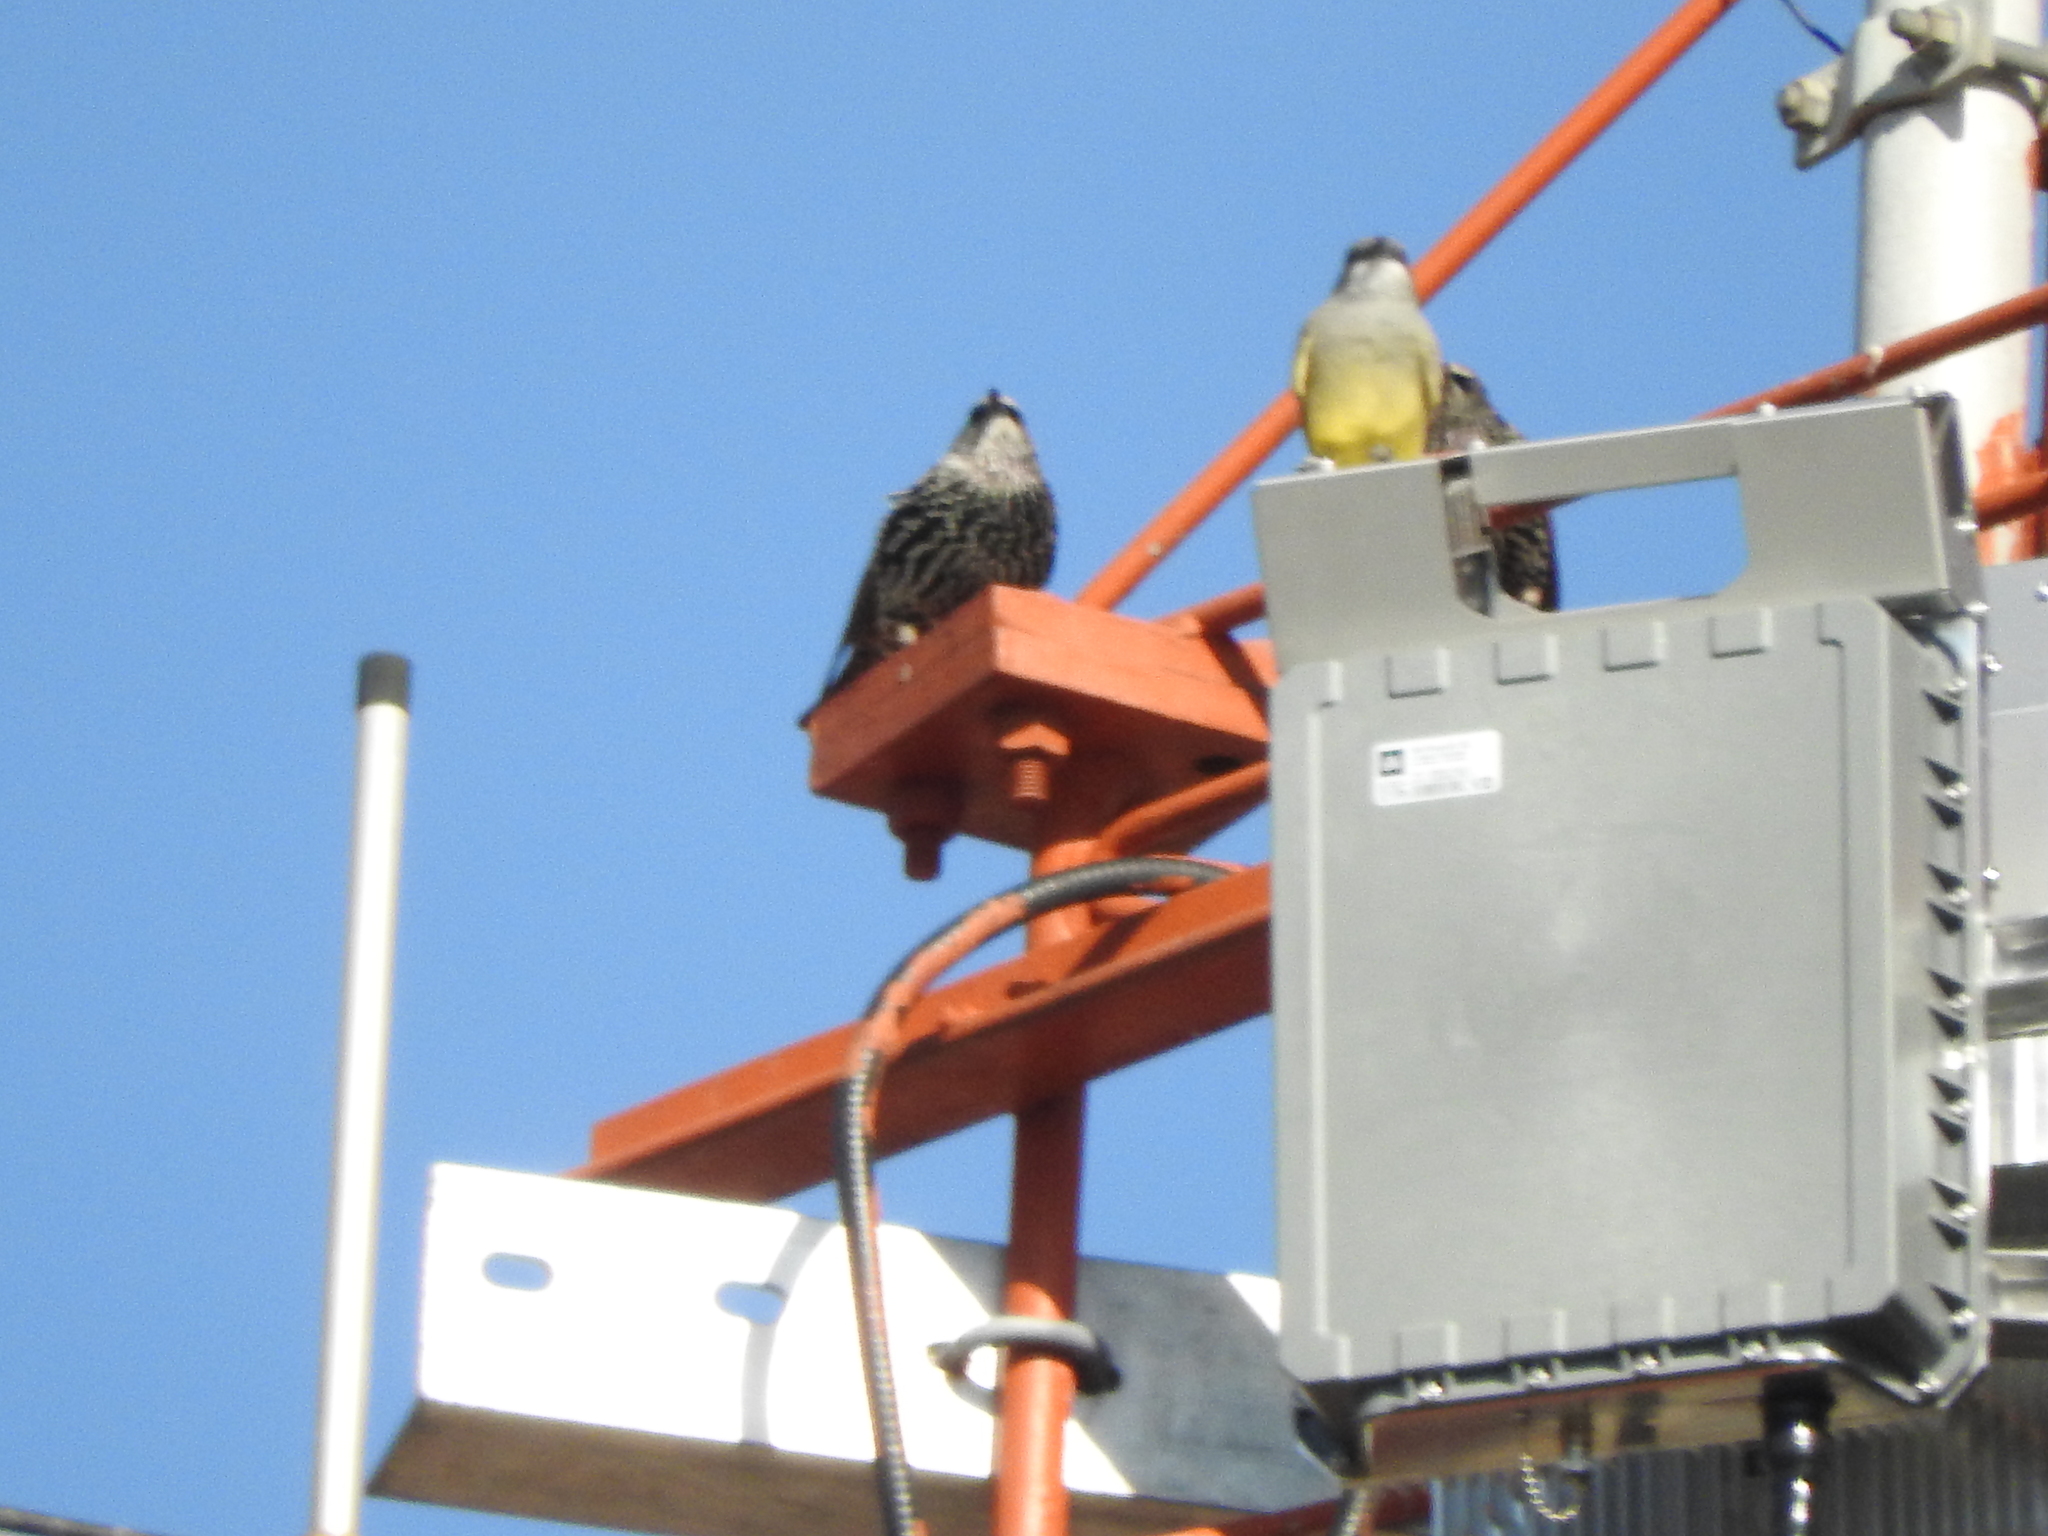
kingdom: Animalia
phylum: Chordata
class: Aves
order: Passeriformes
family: Tyrannidae
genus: Tyrannus
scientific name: Tyrannus vociferans
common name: Cassin's kingbird
